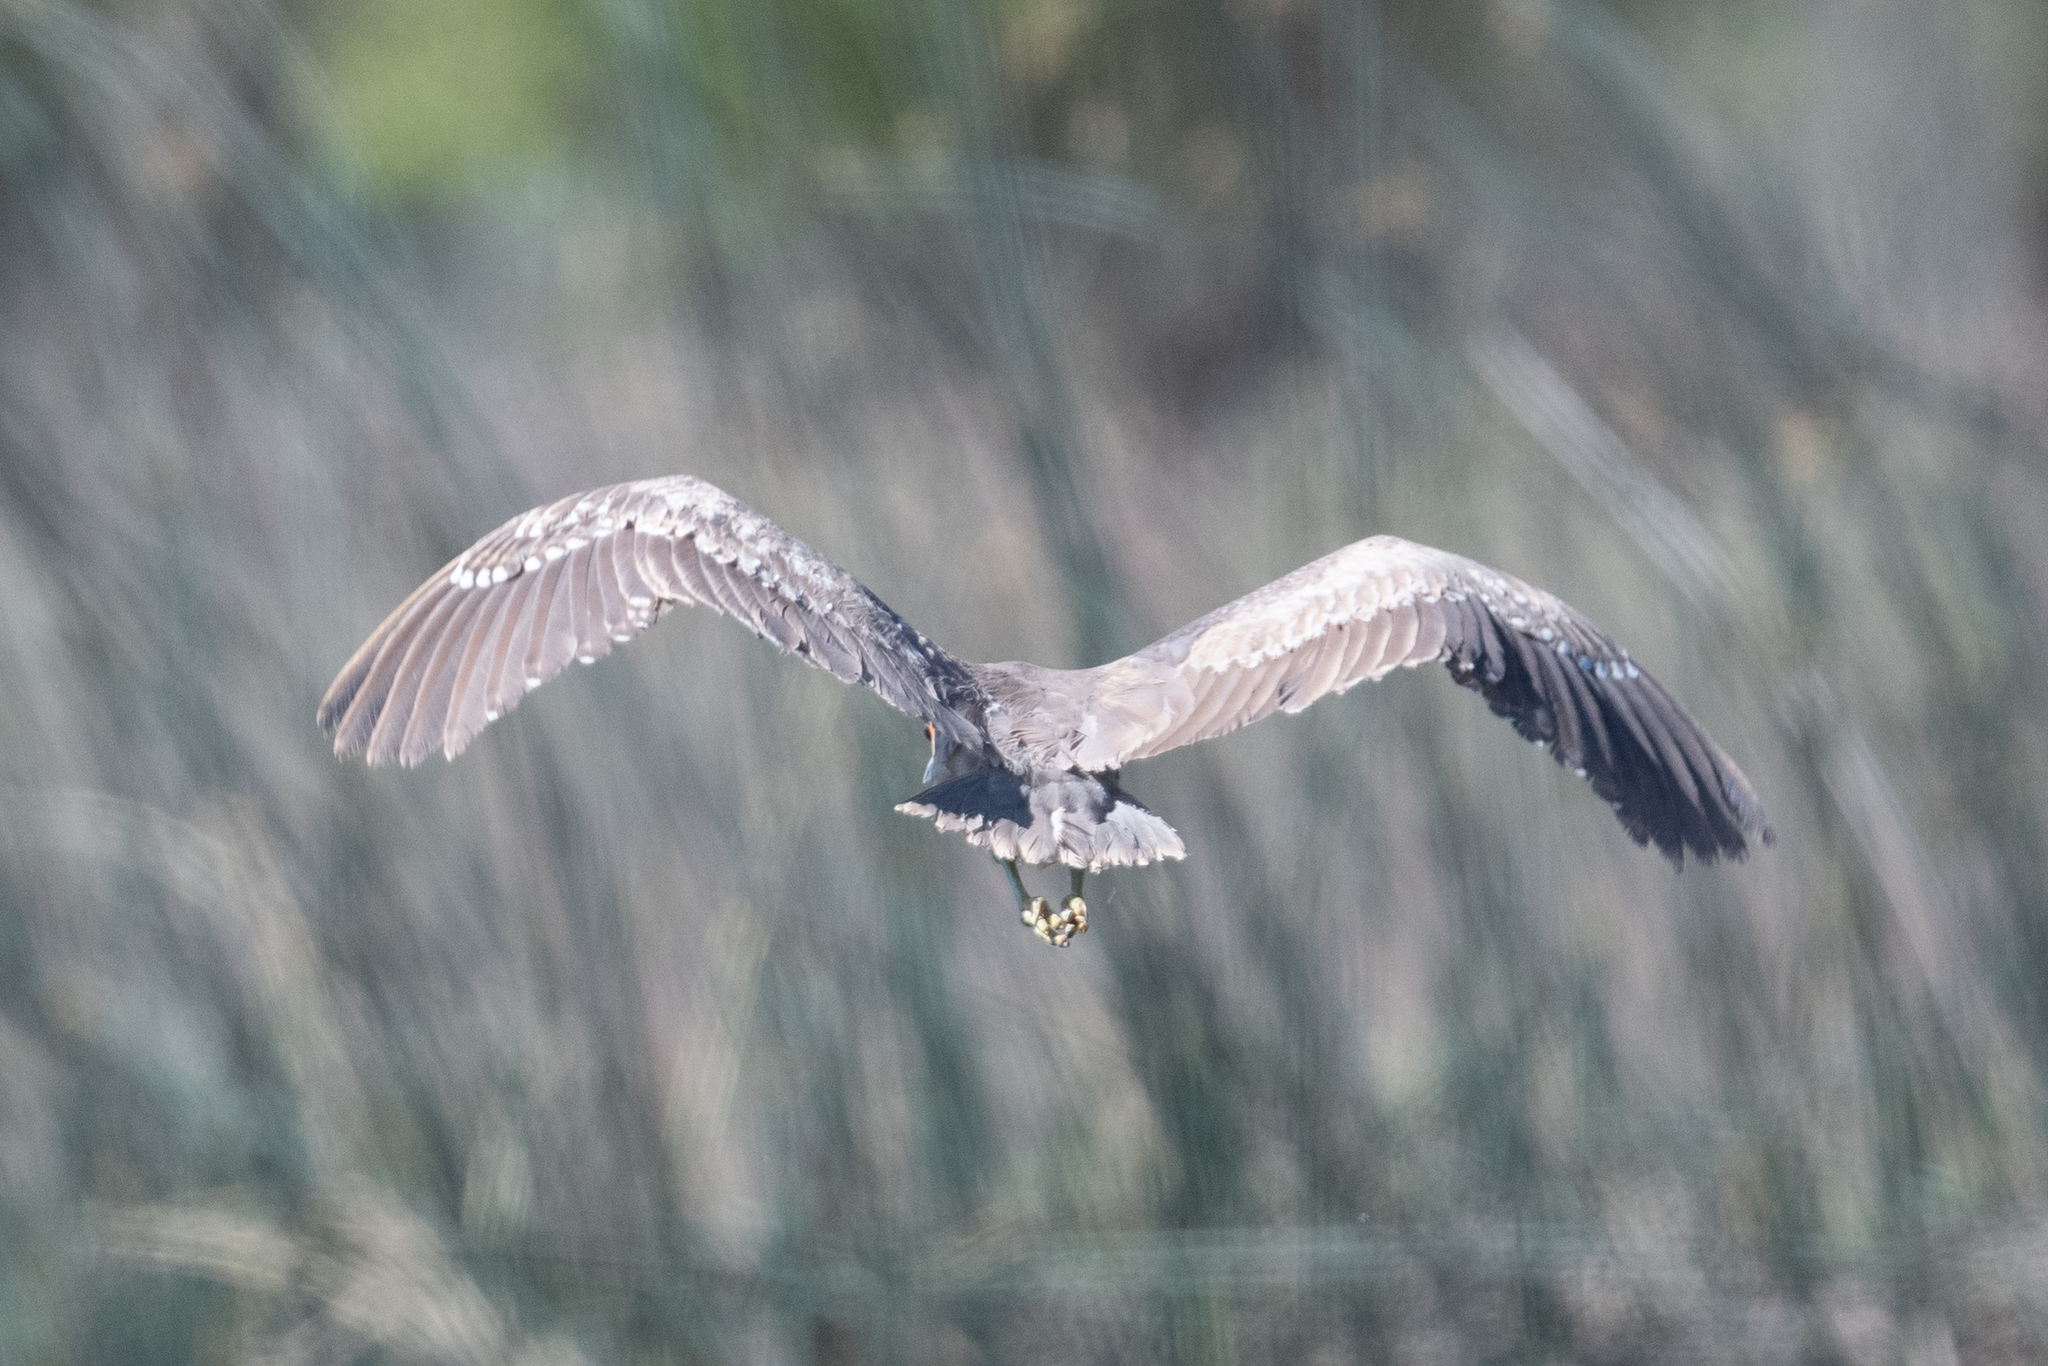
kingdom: Animalia
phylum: Chordata
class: Aves
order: Pelecaniformes
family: Ardeidae
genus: Nycticorax
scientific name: Nycticorax nycticorax
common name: Black-crowned night heron
